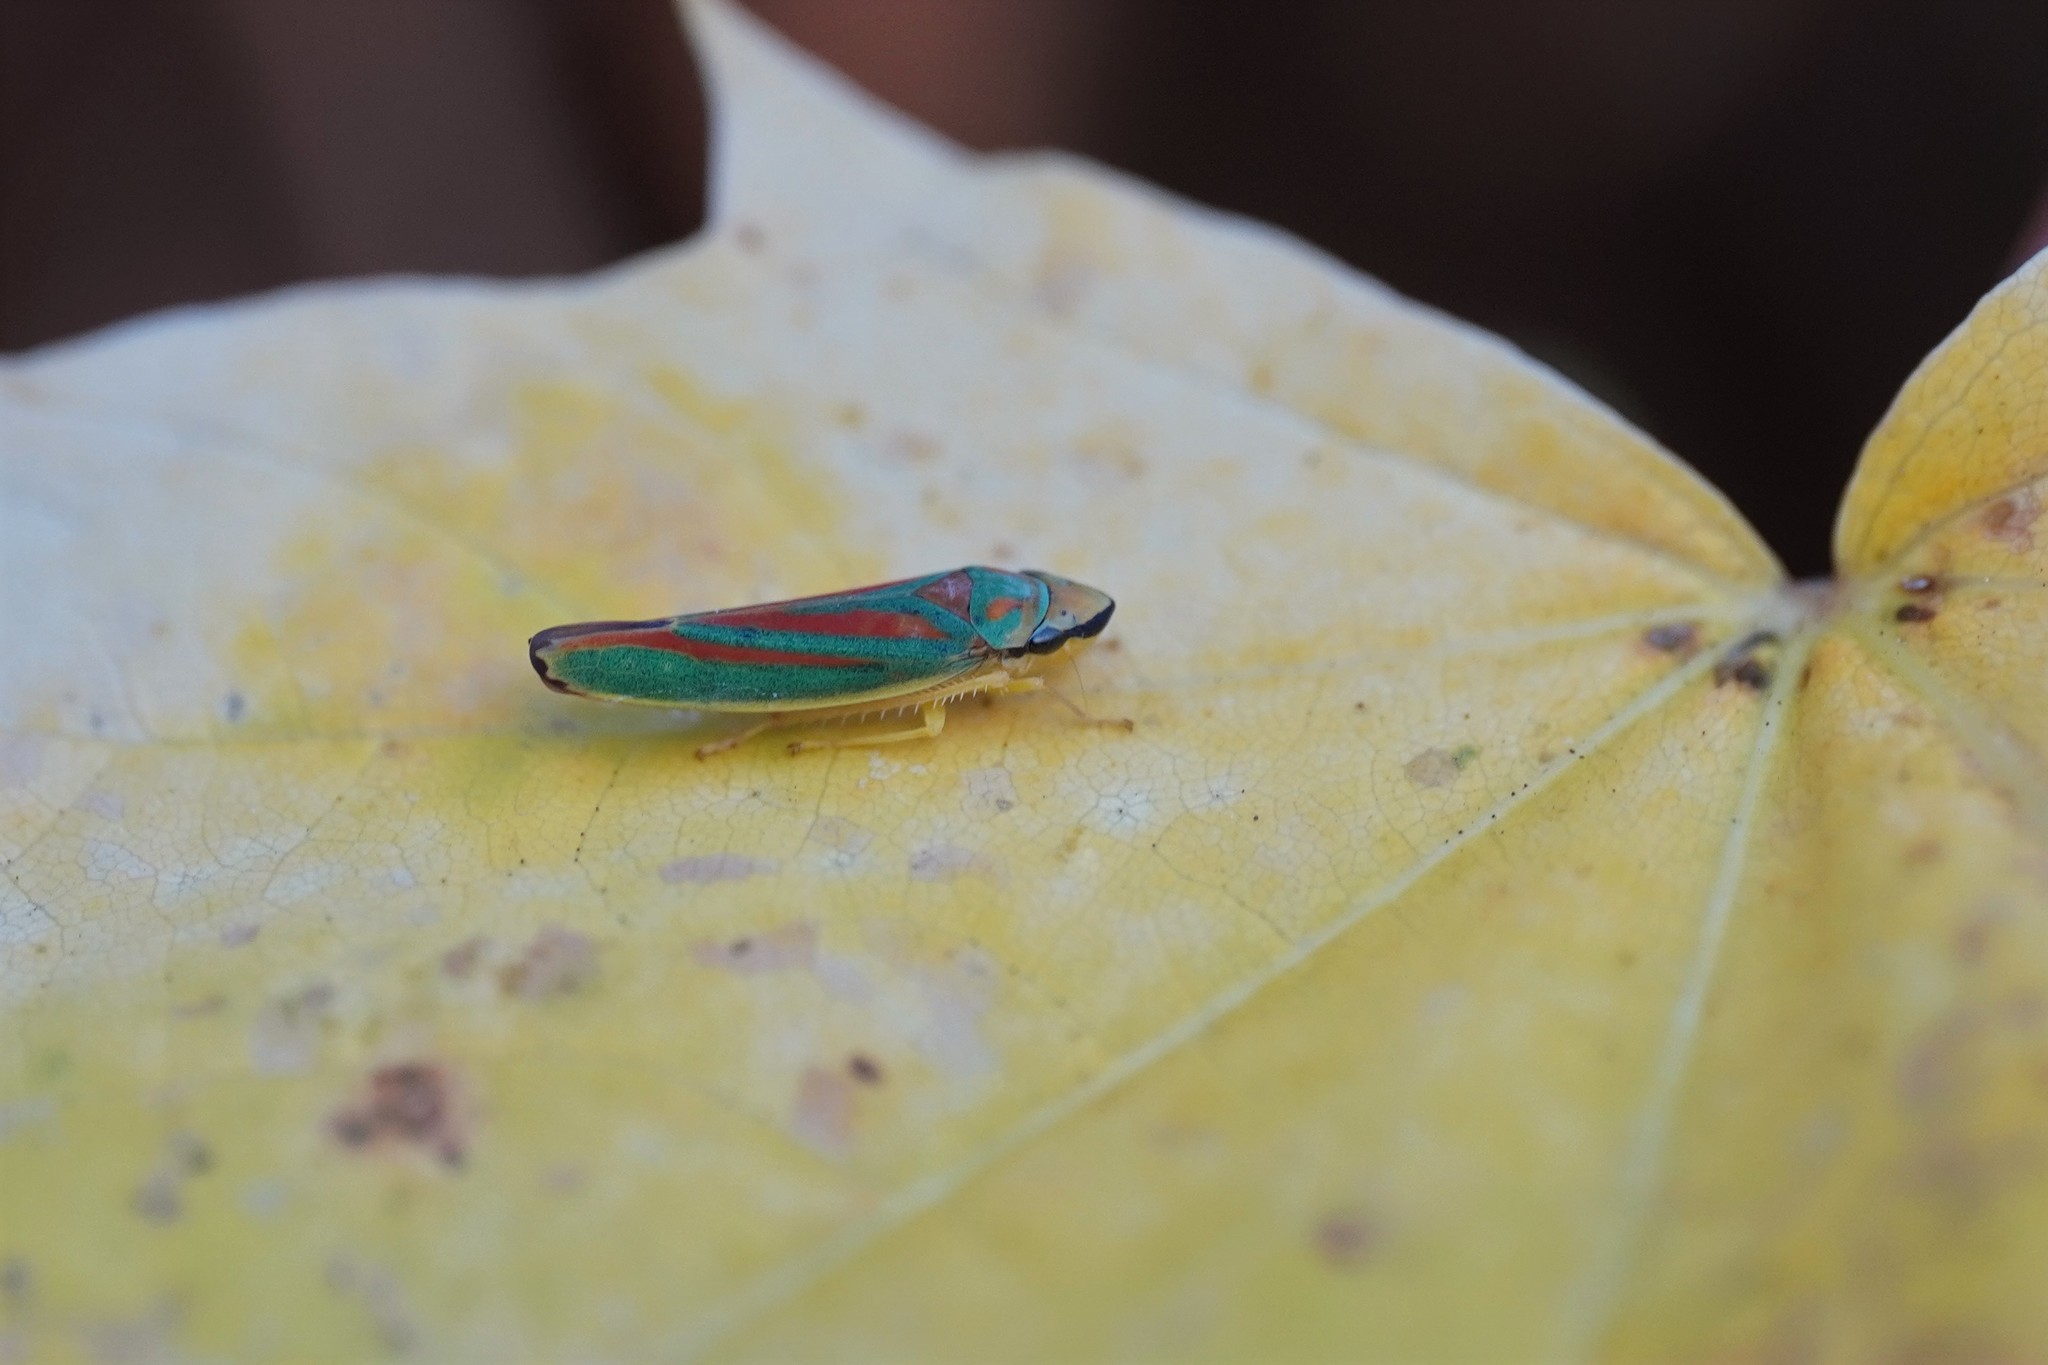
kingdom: Animalia
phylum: Arthropoda
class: Insecta
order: Hemiptera
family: Cicadellidae
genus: Graphocephala
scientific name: Graphocephala fennahi
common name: Rhododendron leafhopper
